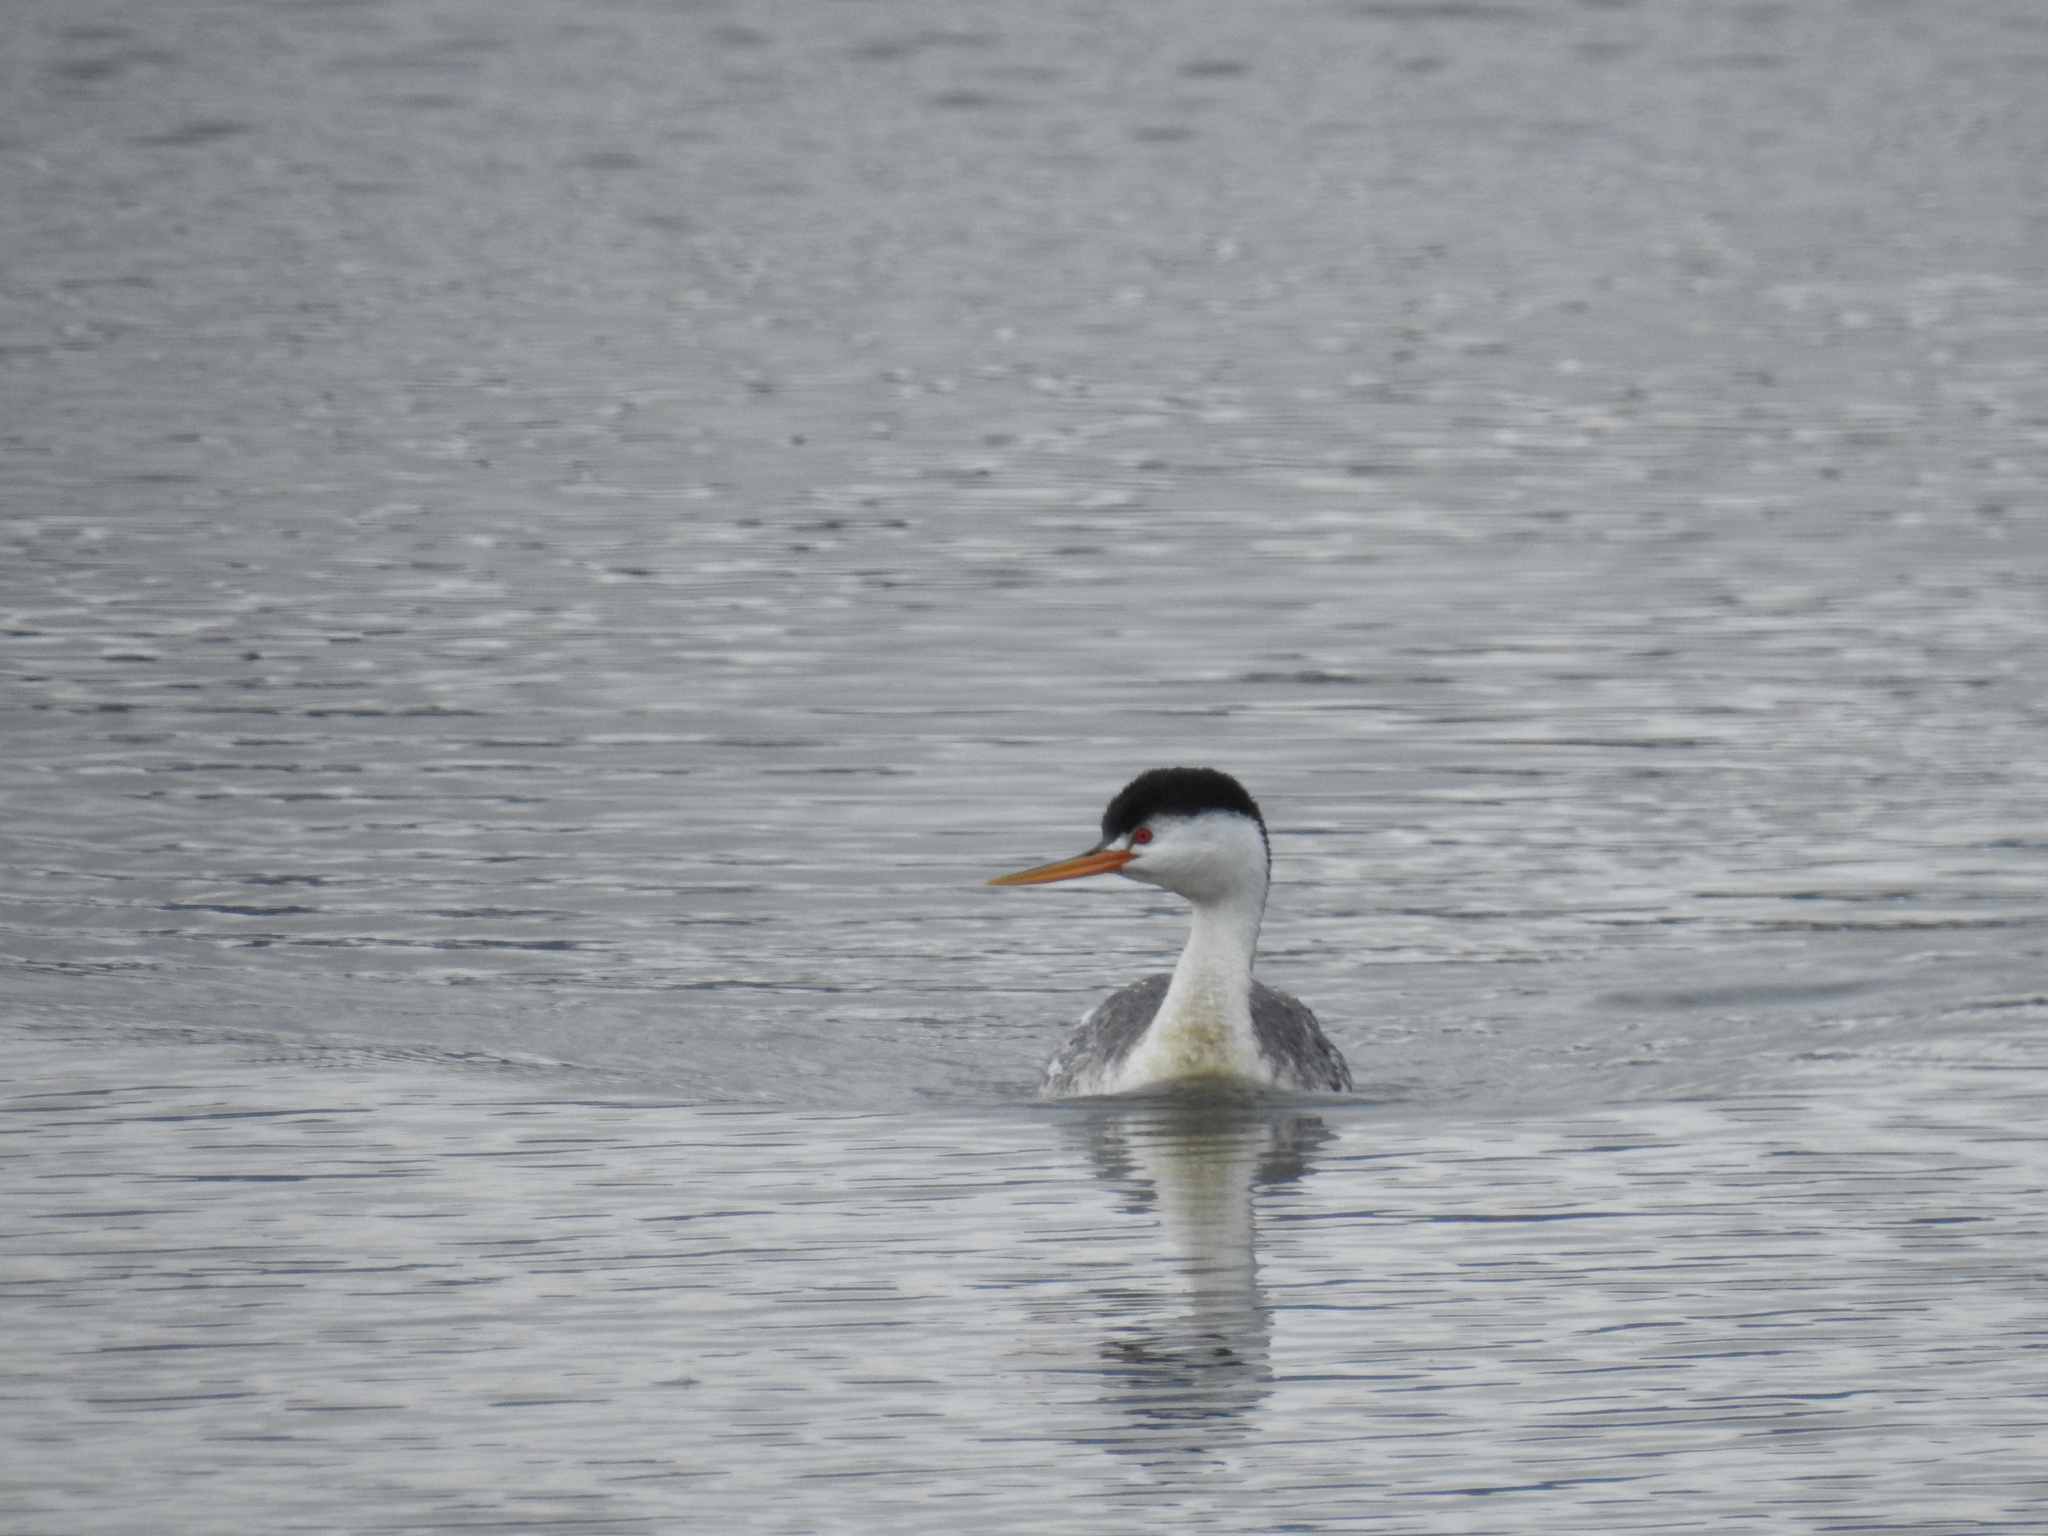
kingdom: Animalia
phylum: Chordata
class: Aves
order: Podicipediformes
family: Podicipedidae
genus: Aechmophorus
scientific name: Aechmophorus clarkii
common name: Clark's grebe
